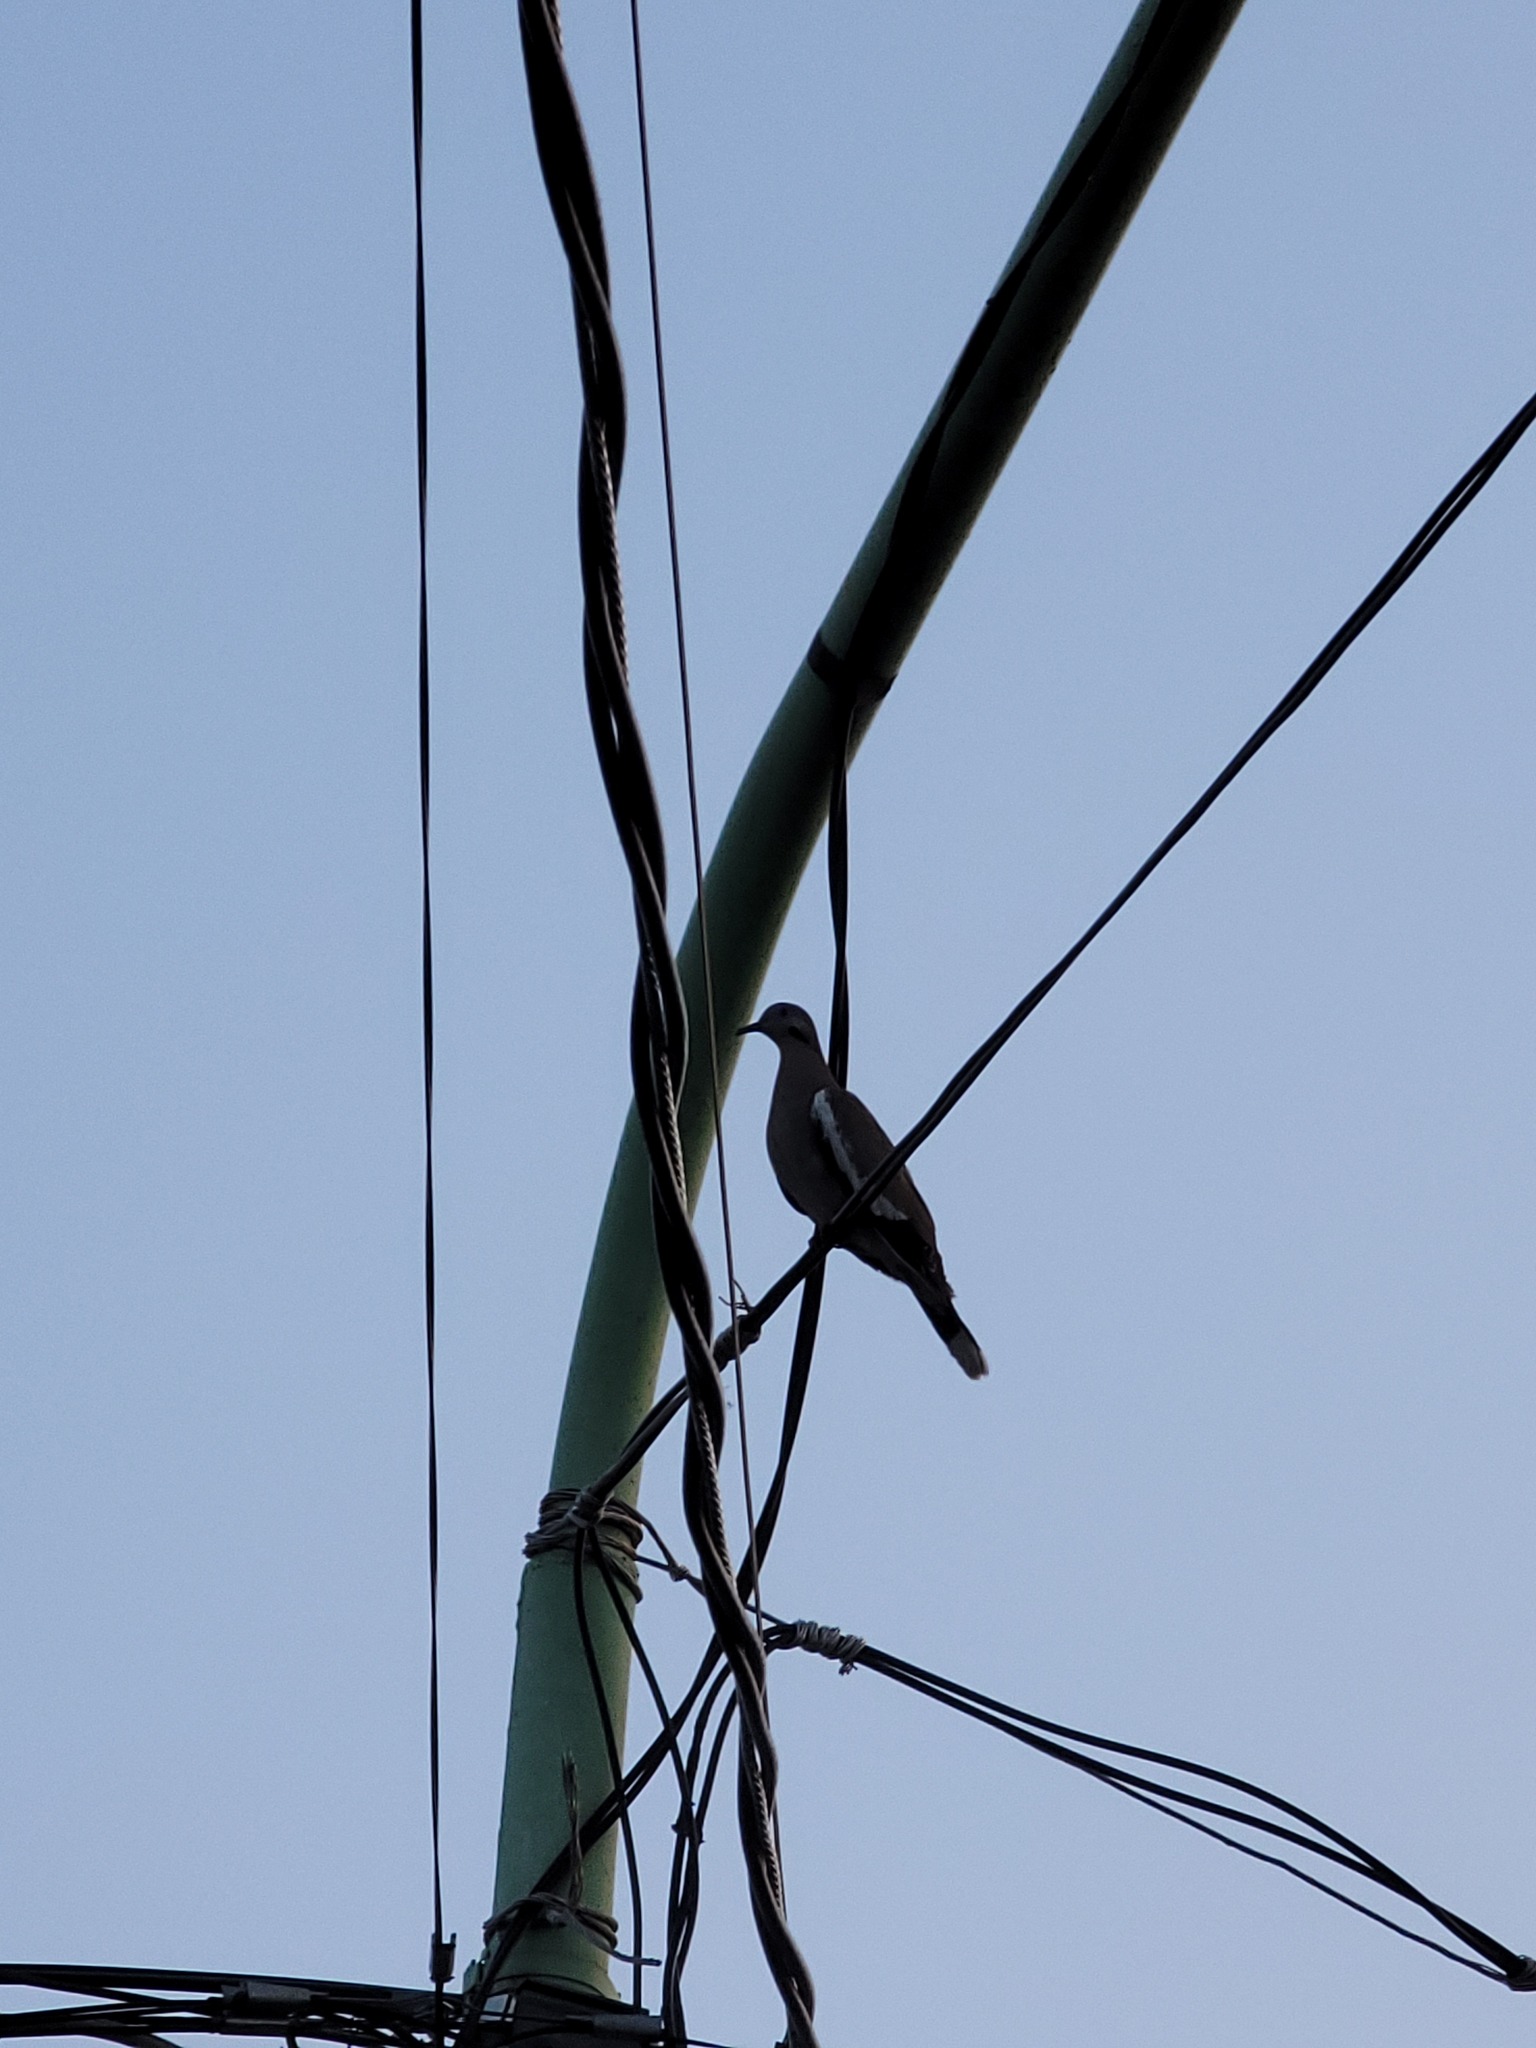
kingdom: Animalia
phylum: Chordata
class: Aves
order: Columbiformes
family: Columbidae
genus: Zenaida
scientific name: Zenaida asiatica
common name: White-winged dove
